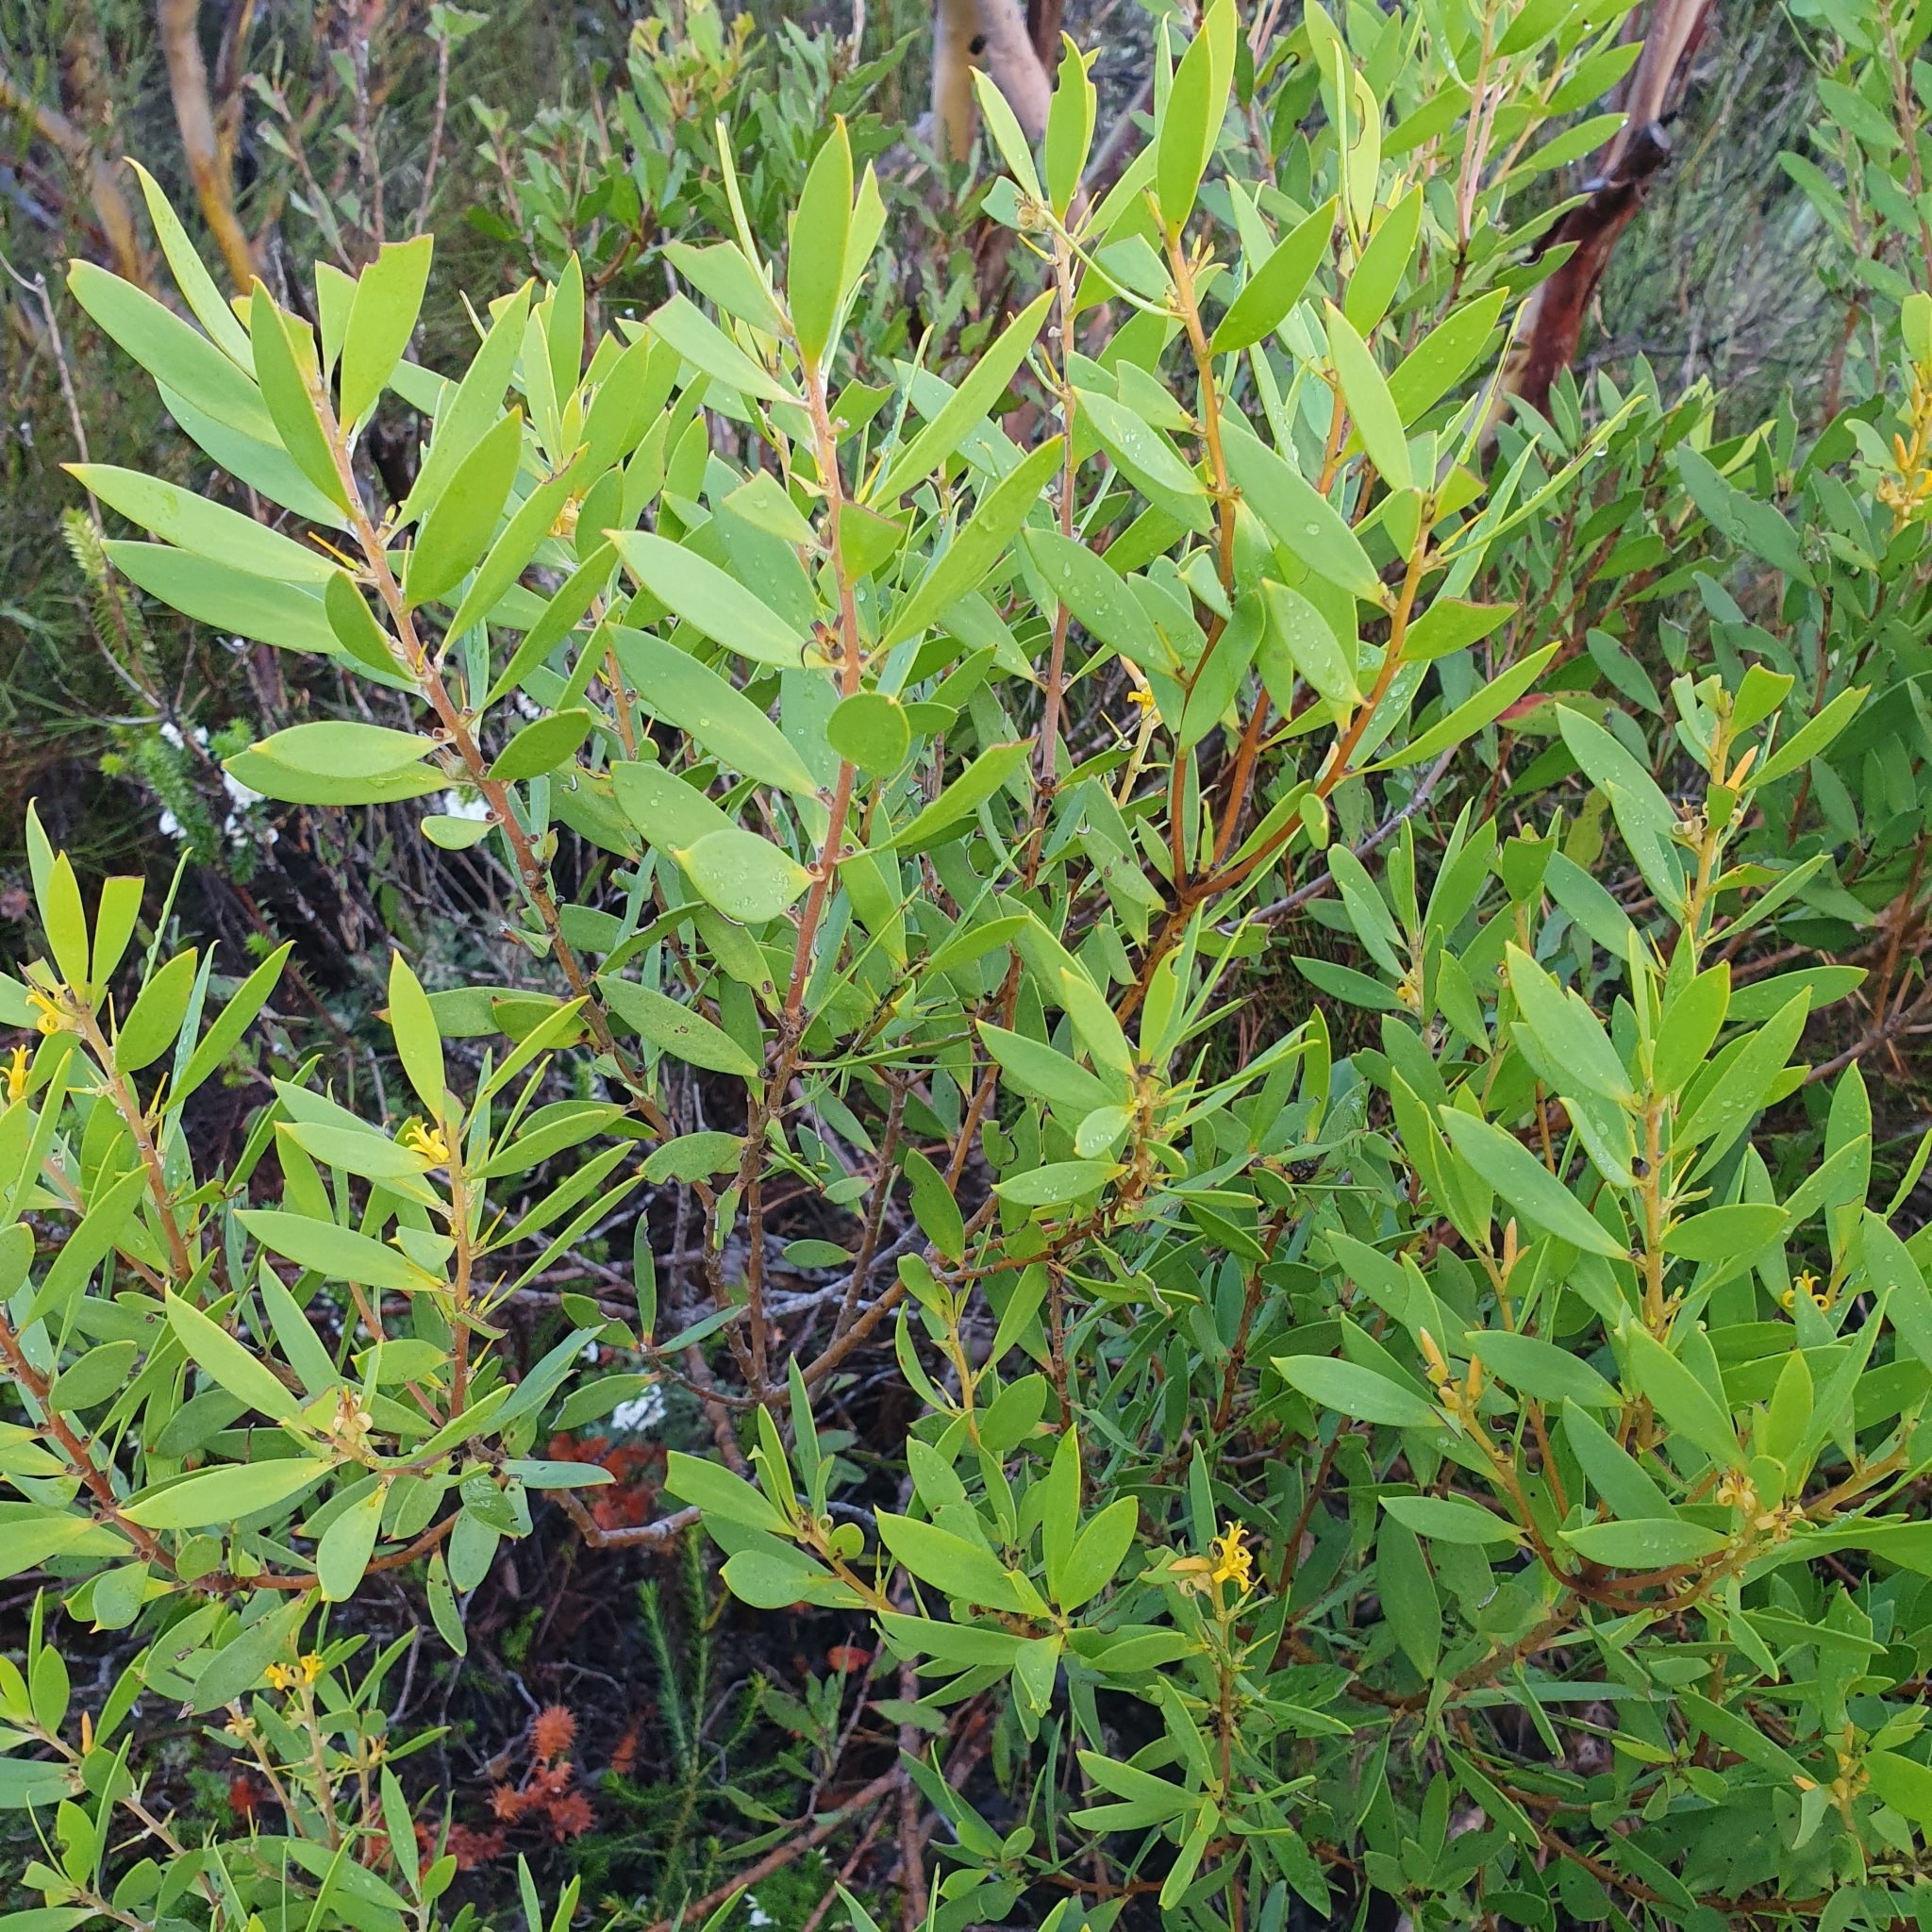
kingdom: Plantae
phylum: Tracheophyta
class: Magnoliopsida
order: Proteales
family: Proteaceae
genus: Persoonia
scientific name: Persoonia lanceolata
